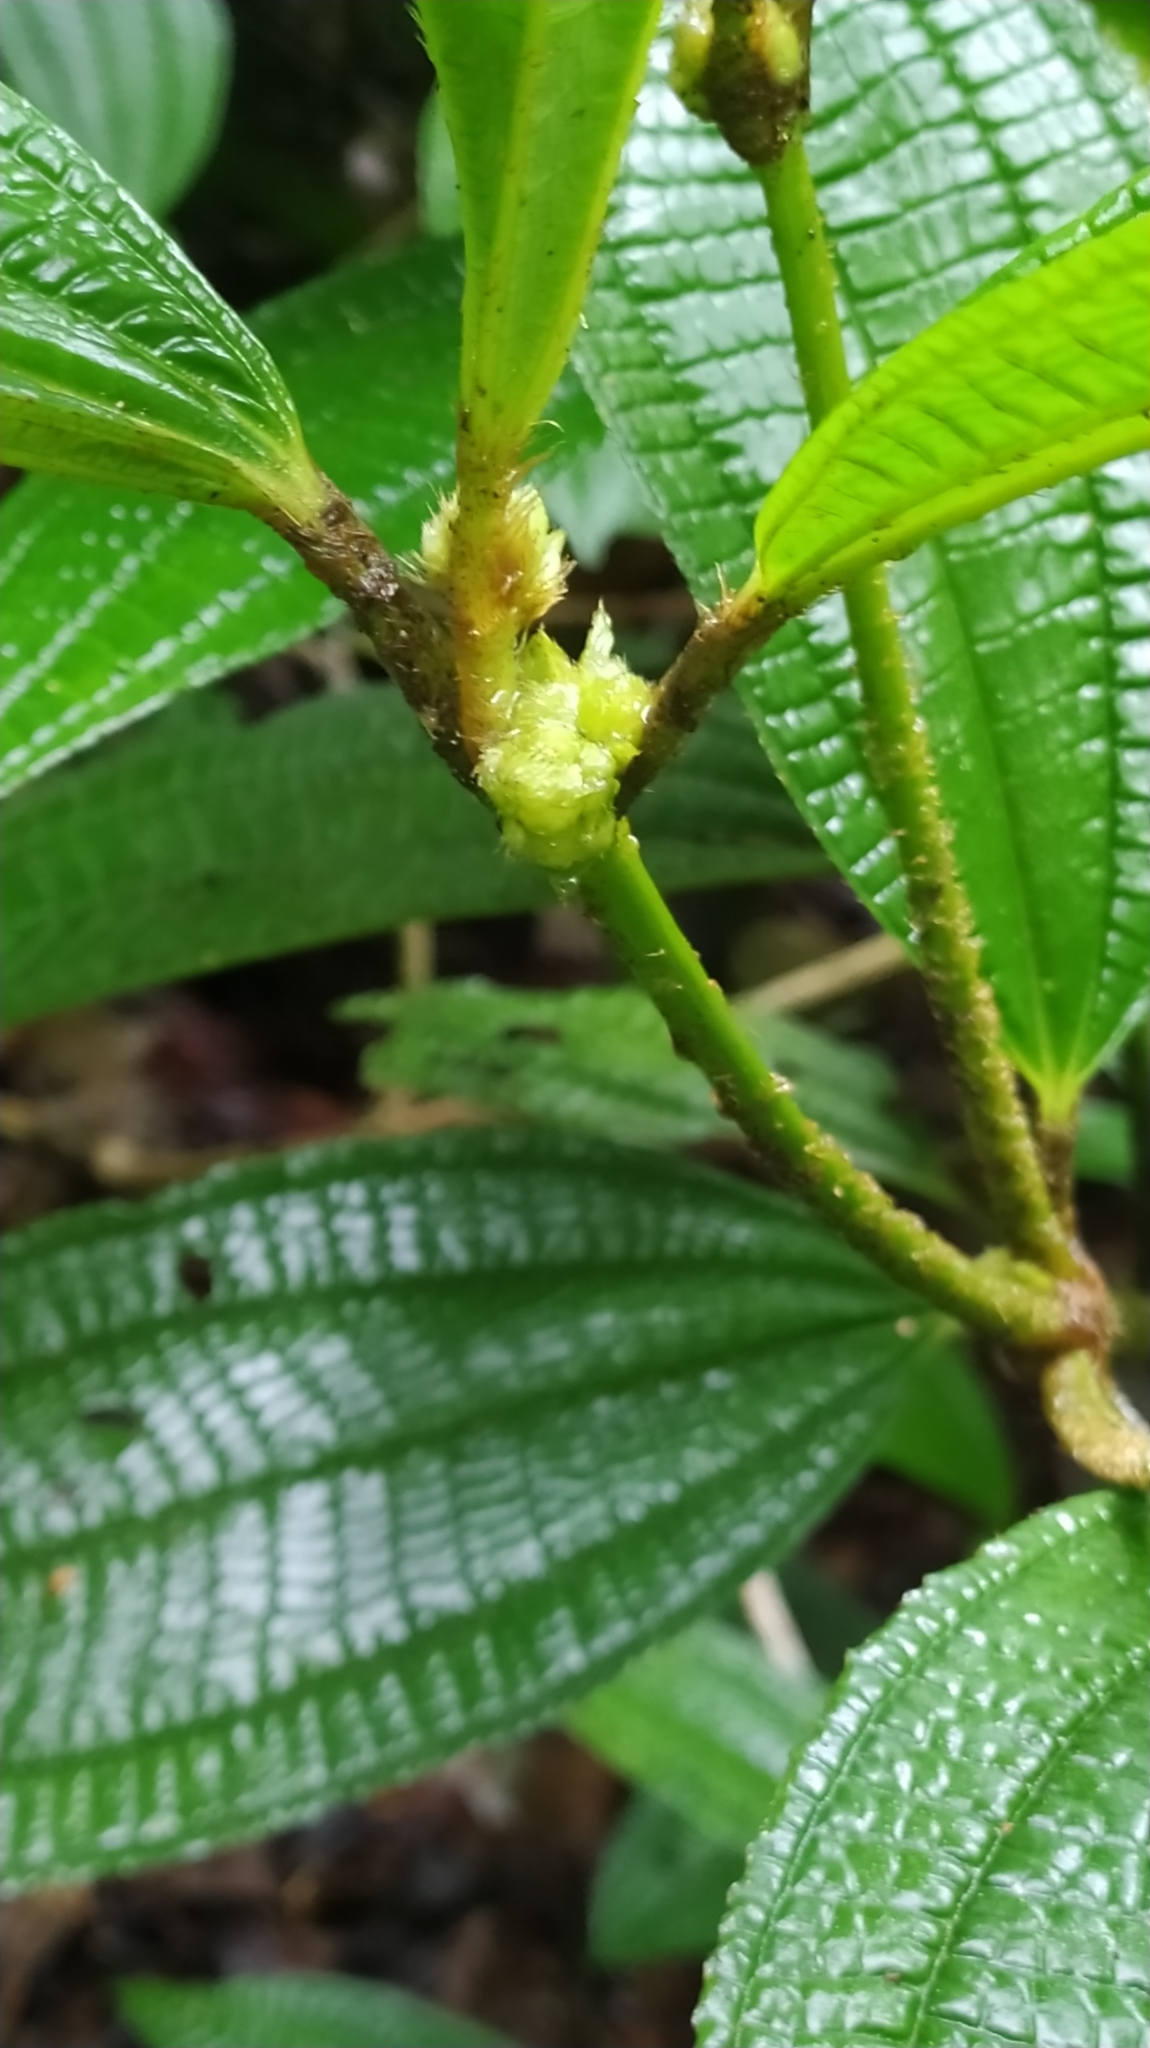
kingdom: Plantae
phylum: Tracheophyta
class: Magnoliopsida
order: Myrtales
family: Melastomataceae
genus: Miconia
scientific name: Miconia conglomerata
